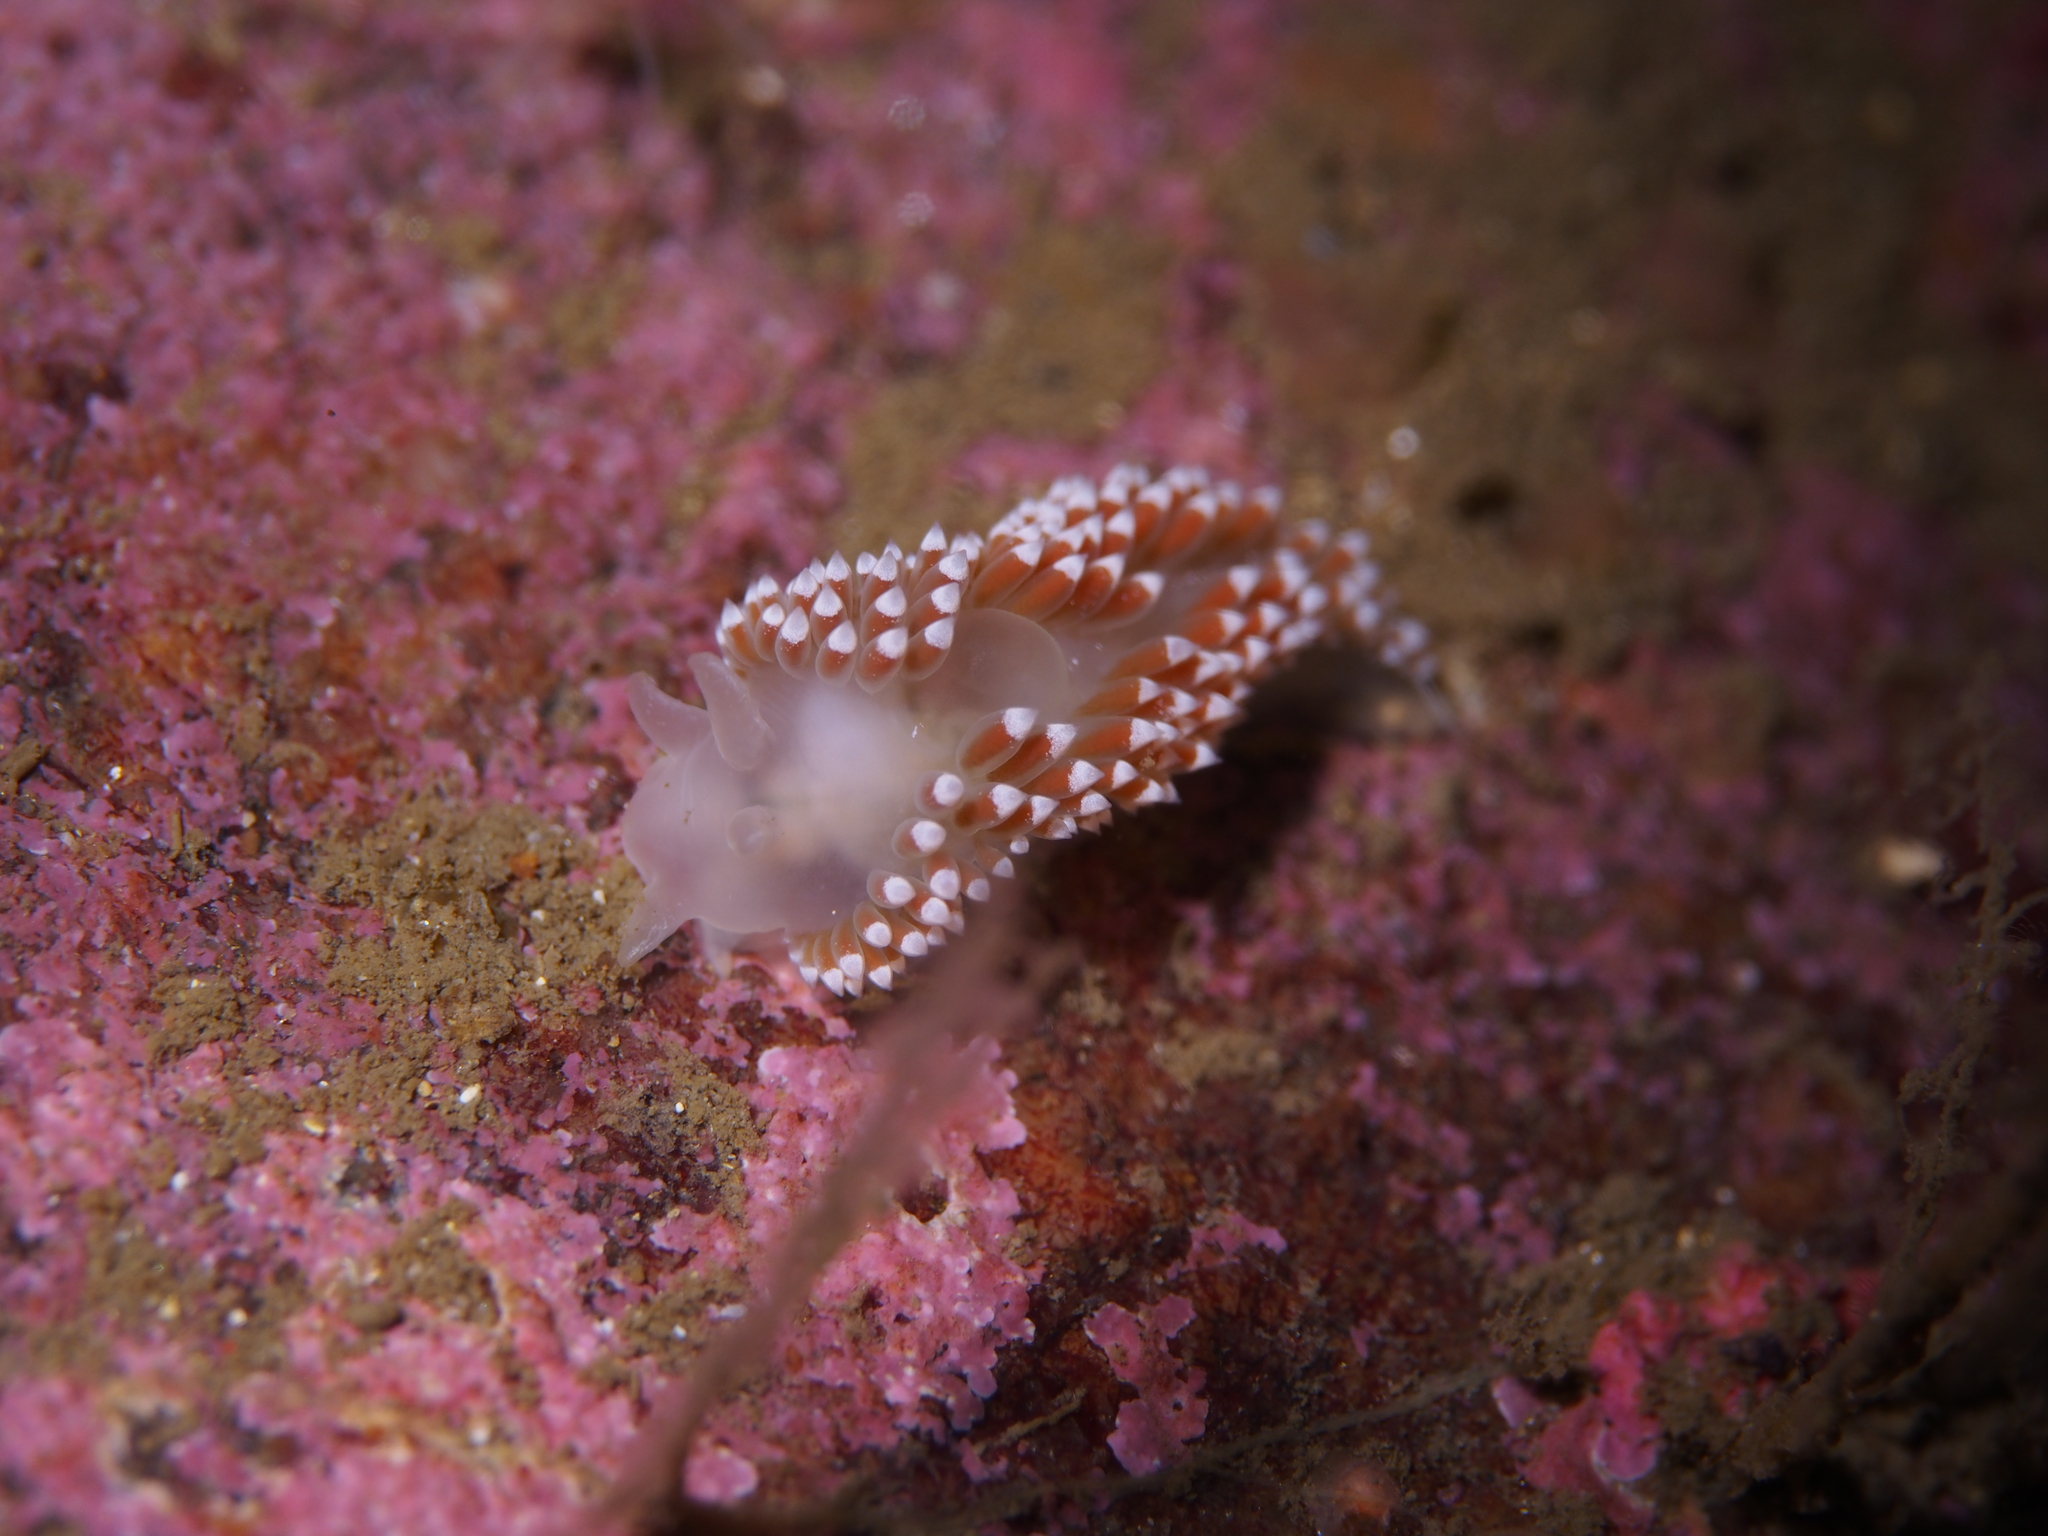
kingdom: Animalia
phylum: Mollusca
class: Gastropoda
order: Nudibranchia
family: Coryphellidae
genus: Coryphella
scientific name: Coryphella verrucosa
